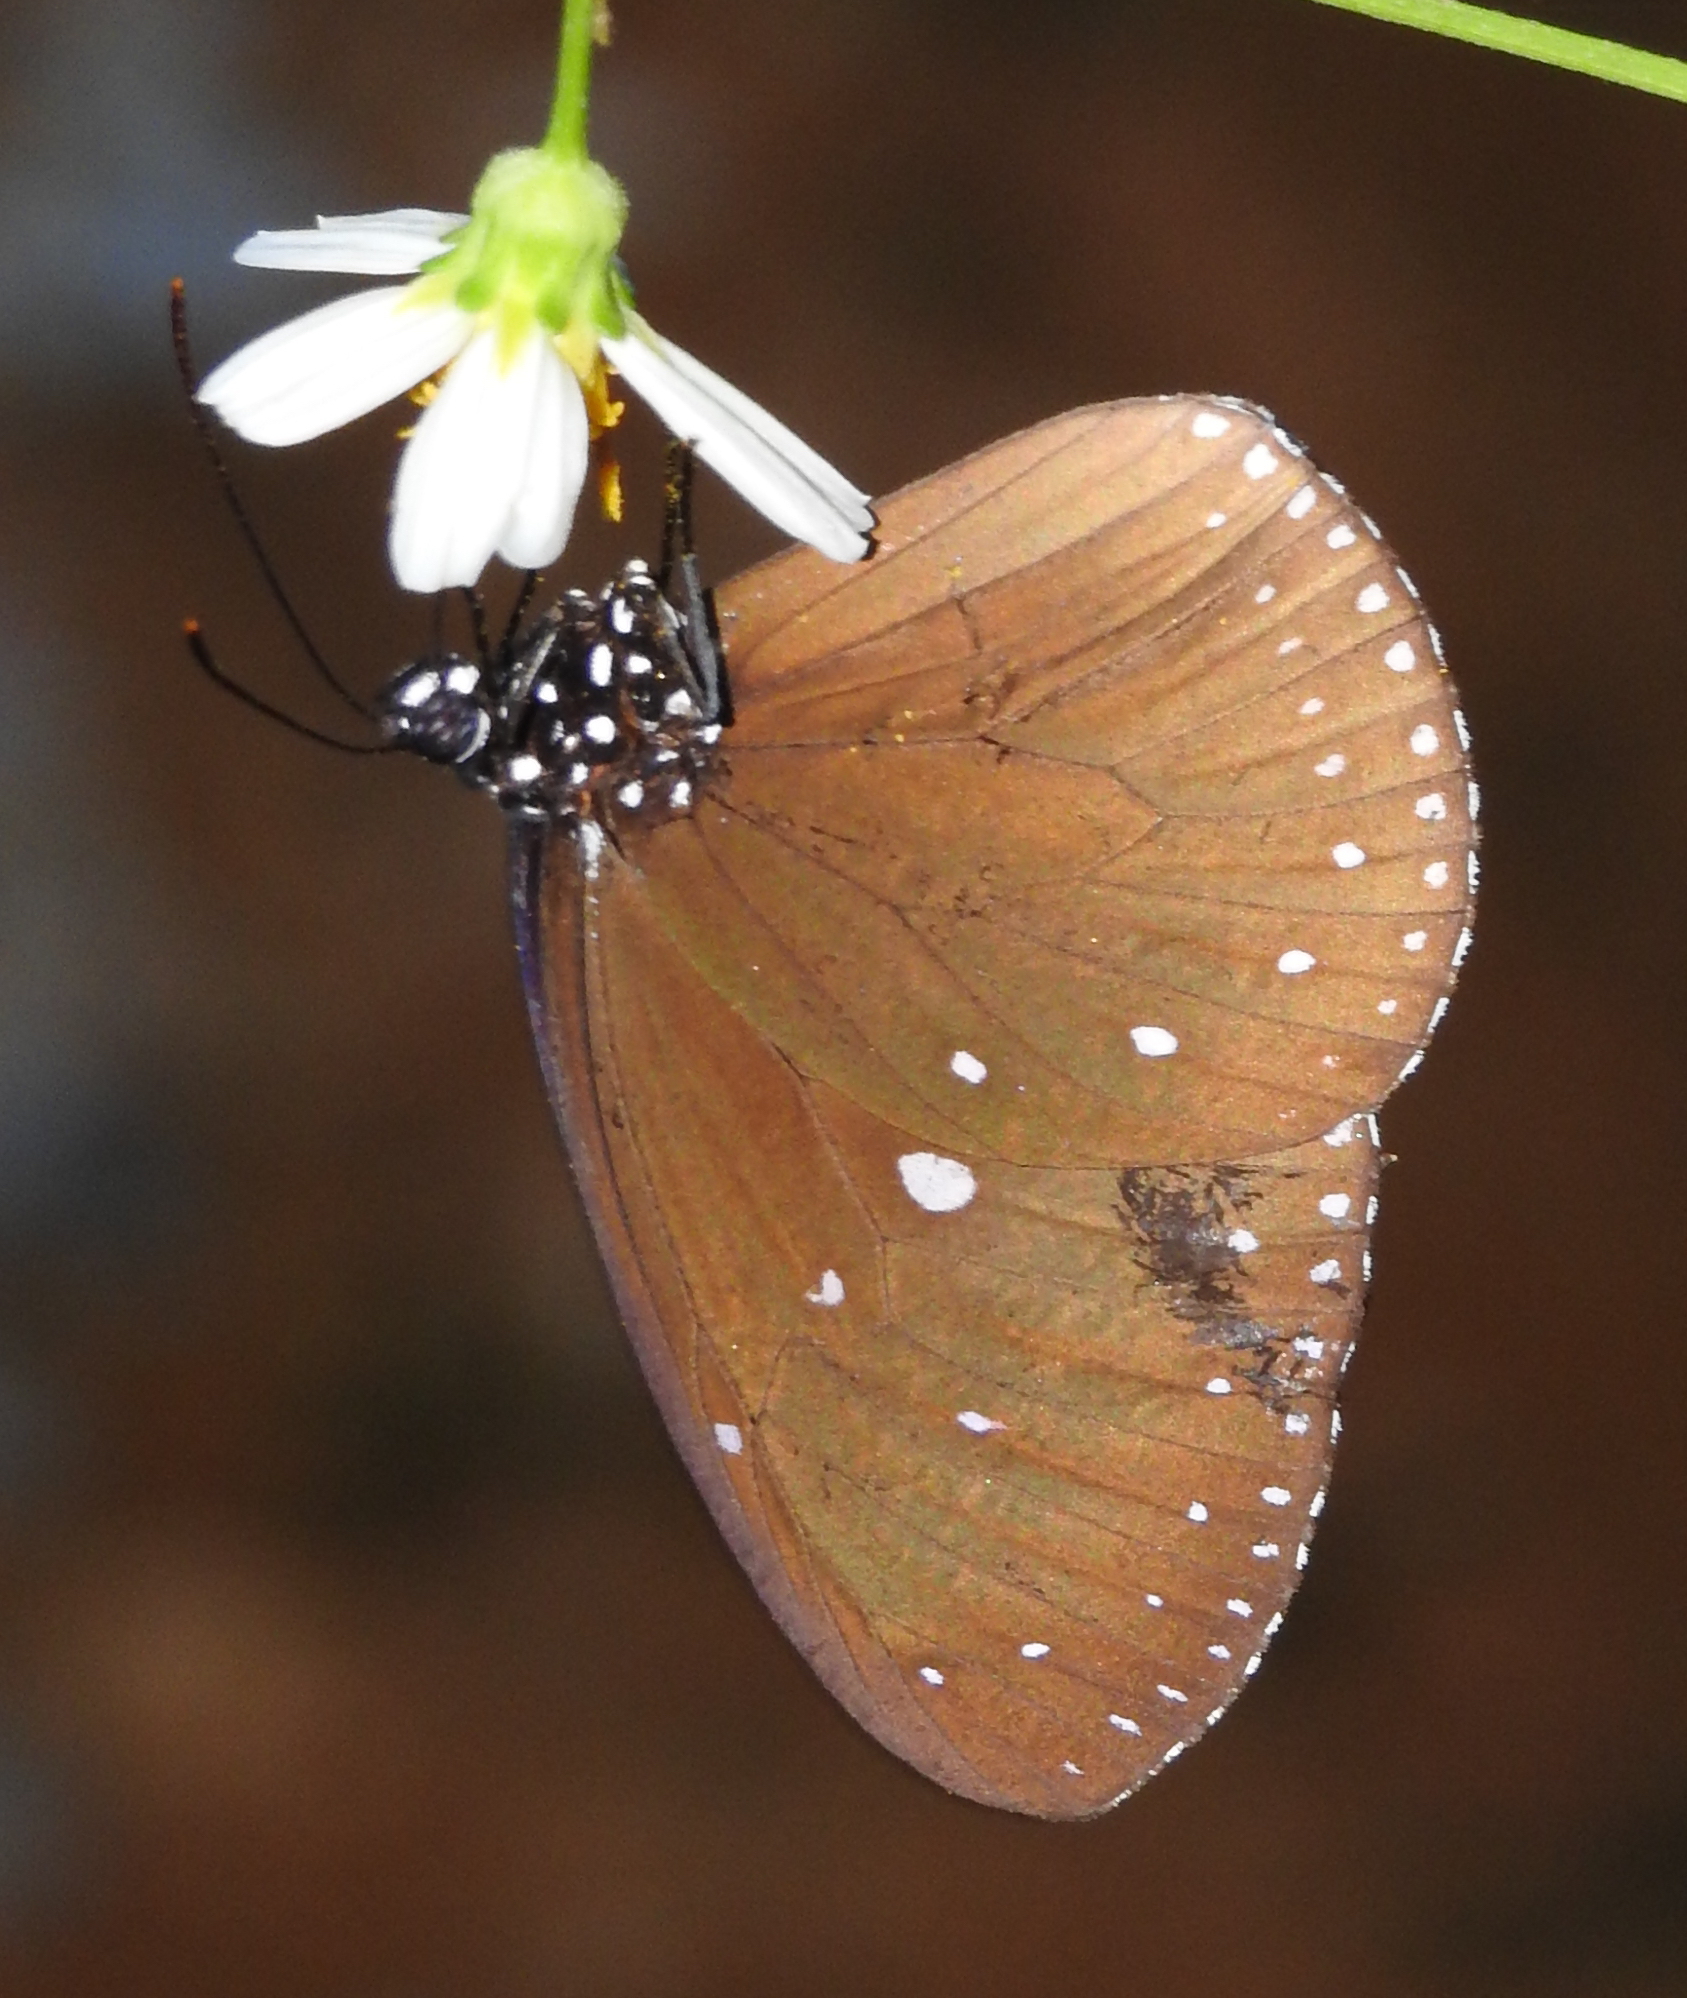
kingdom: Animalia
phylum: Arthropoda
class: Insecta
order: Lepidoptera
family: Nymphalidae
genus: Euploea
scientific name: Euploea tulliolus
